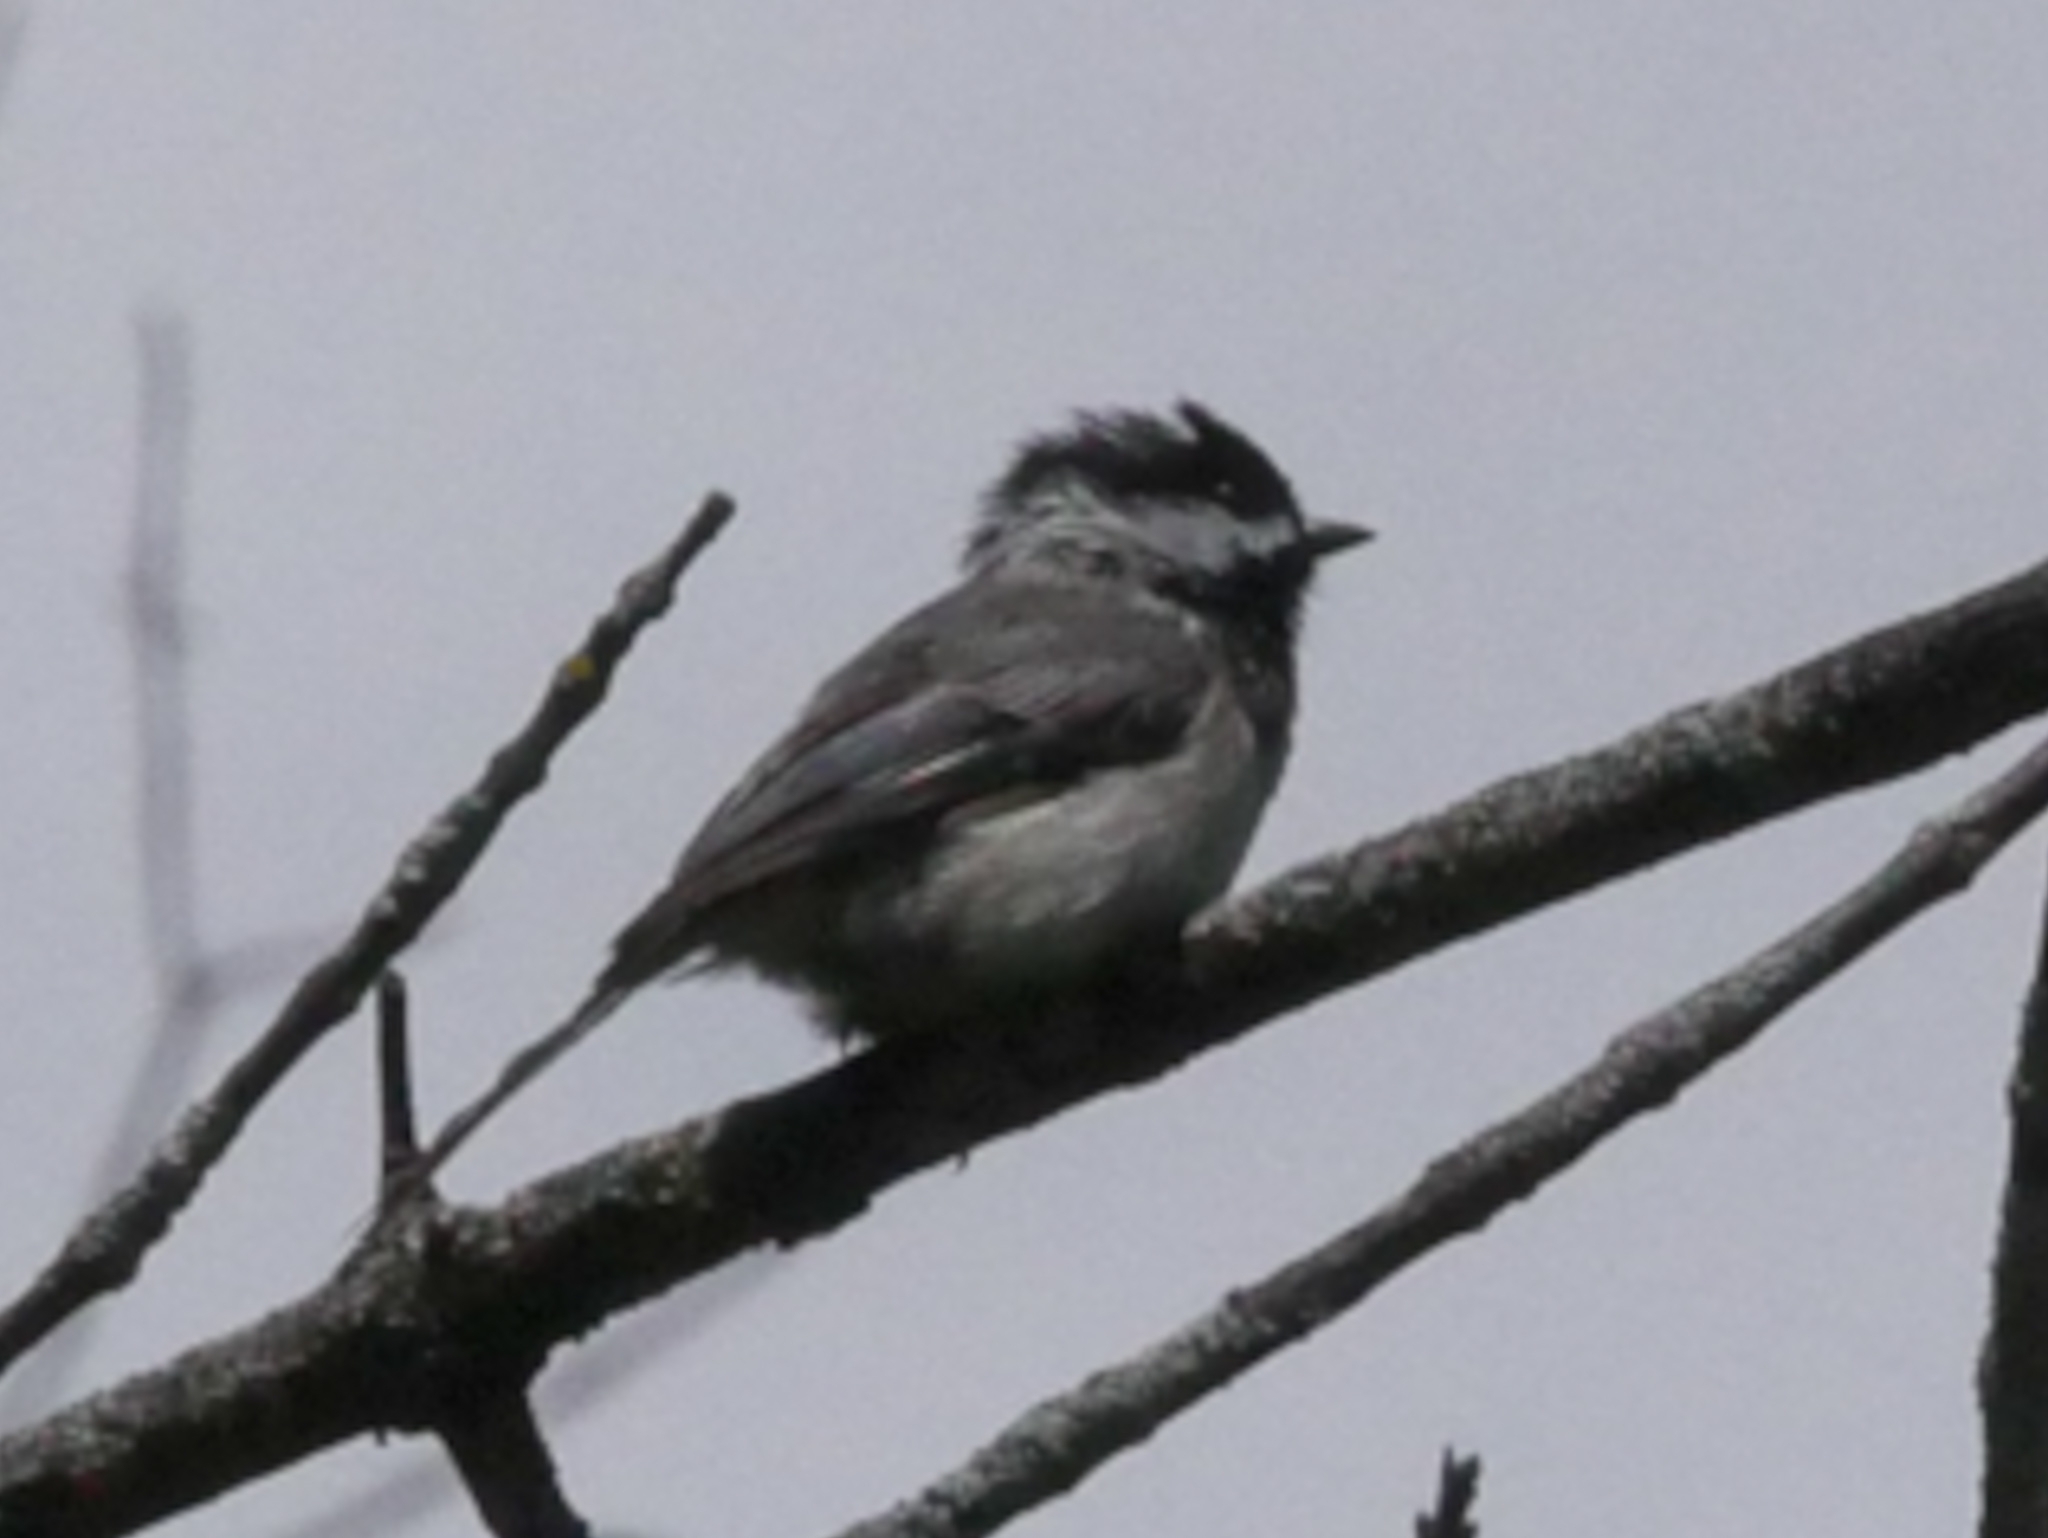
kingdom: Animalia
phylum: Chordata
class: Aves
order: Passeriformes
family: Paridae
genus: Poecile
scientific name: Poecile atricapillus
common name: Black-capped chickadee
